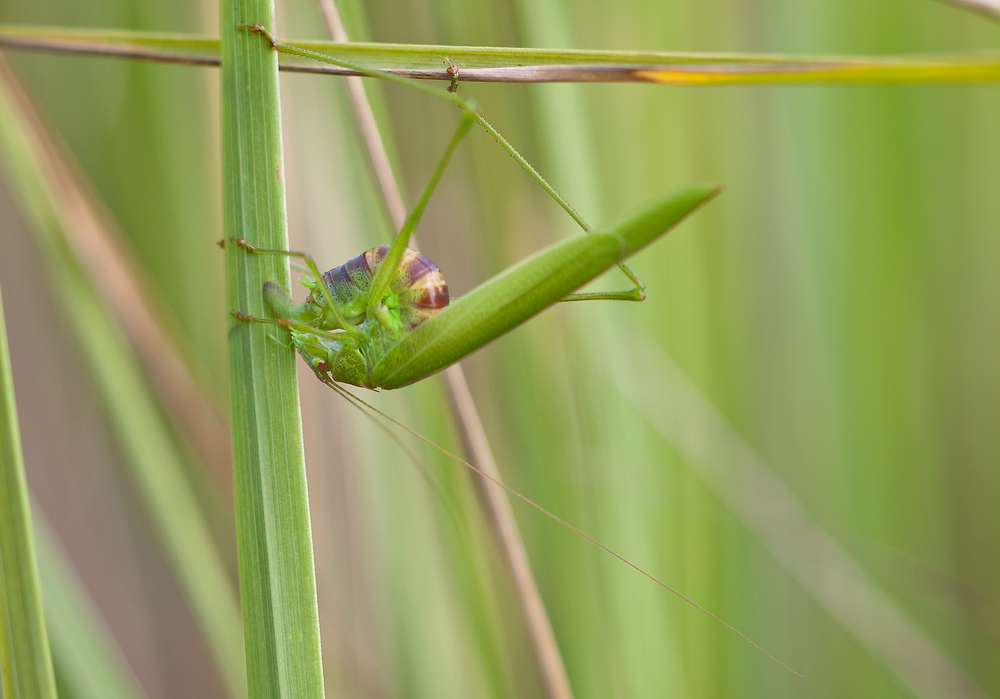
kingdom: Animalia
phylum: Arthropoda
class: Insecta
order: Orthoptera
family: Tettigoniidae
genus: Phaneroptera
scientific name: Phaneroptera falcata
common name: Sickle-bearing bush-cricket
